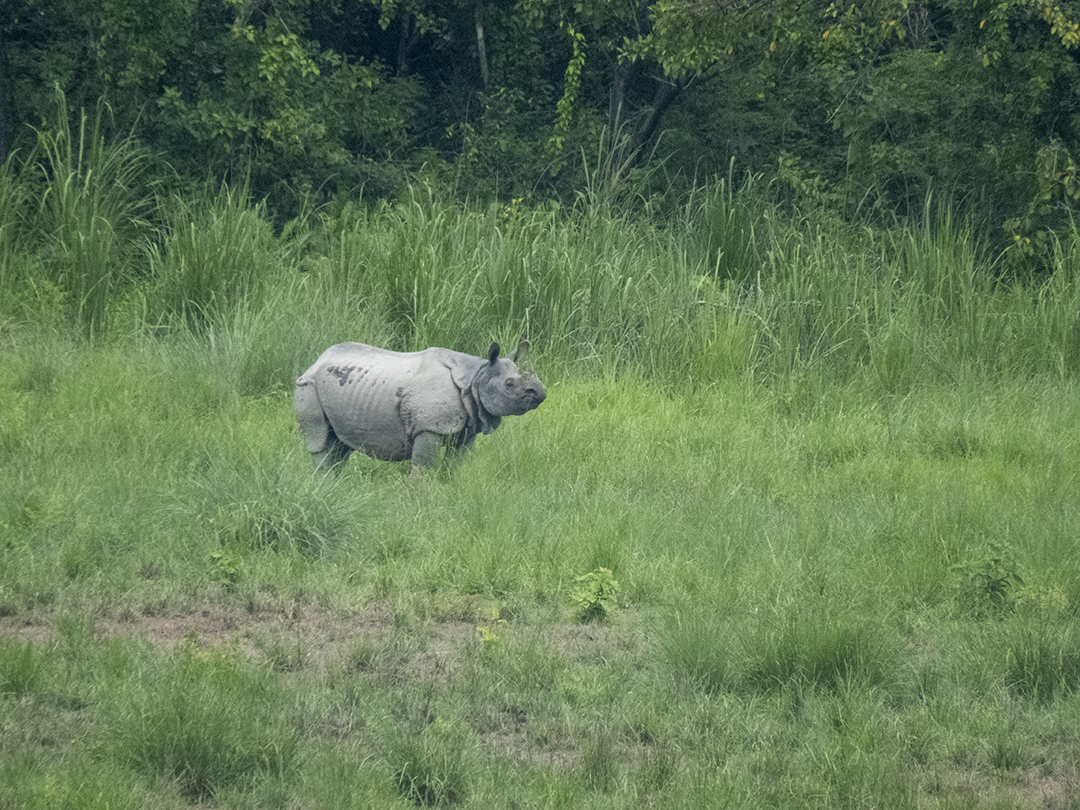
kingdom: Animalia
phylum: Chordata
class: Mammalia
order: Perissodactyla
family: Rhinocerotidae
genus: Rhinoceros
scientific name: Rhinoceros unicornis
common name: Indian rhinoceros
